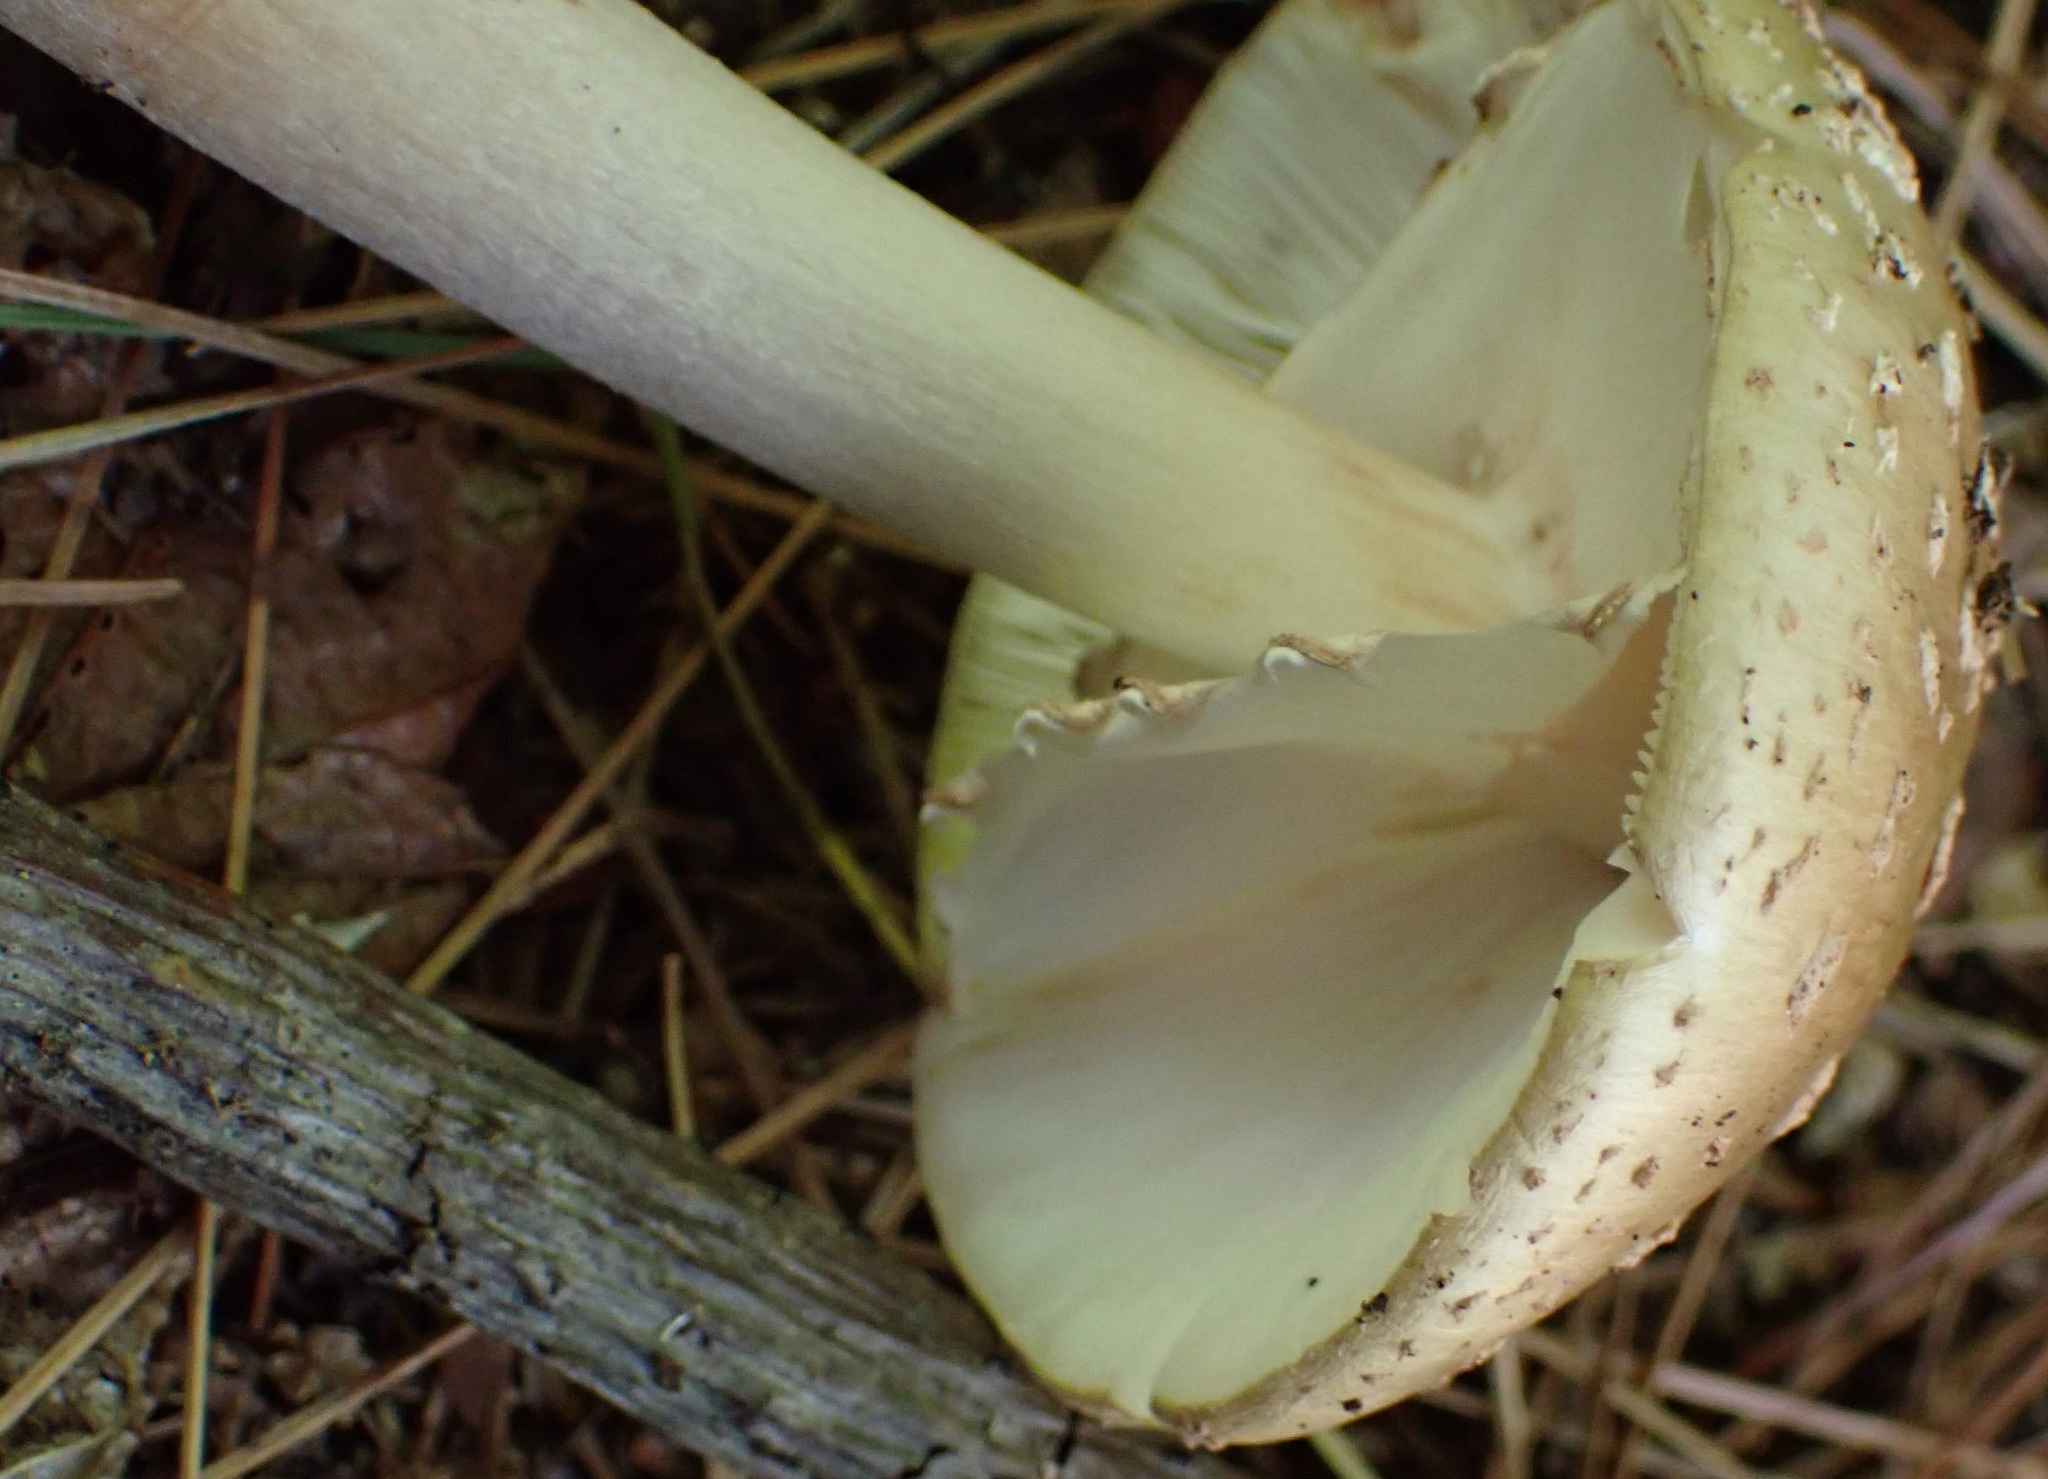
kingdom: Fungi
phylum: Basidiomycota
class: Agaricomycetes
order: Agaricales
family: Amanitaceae
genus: Amanita
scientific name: Amanita
